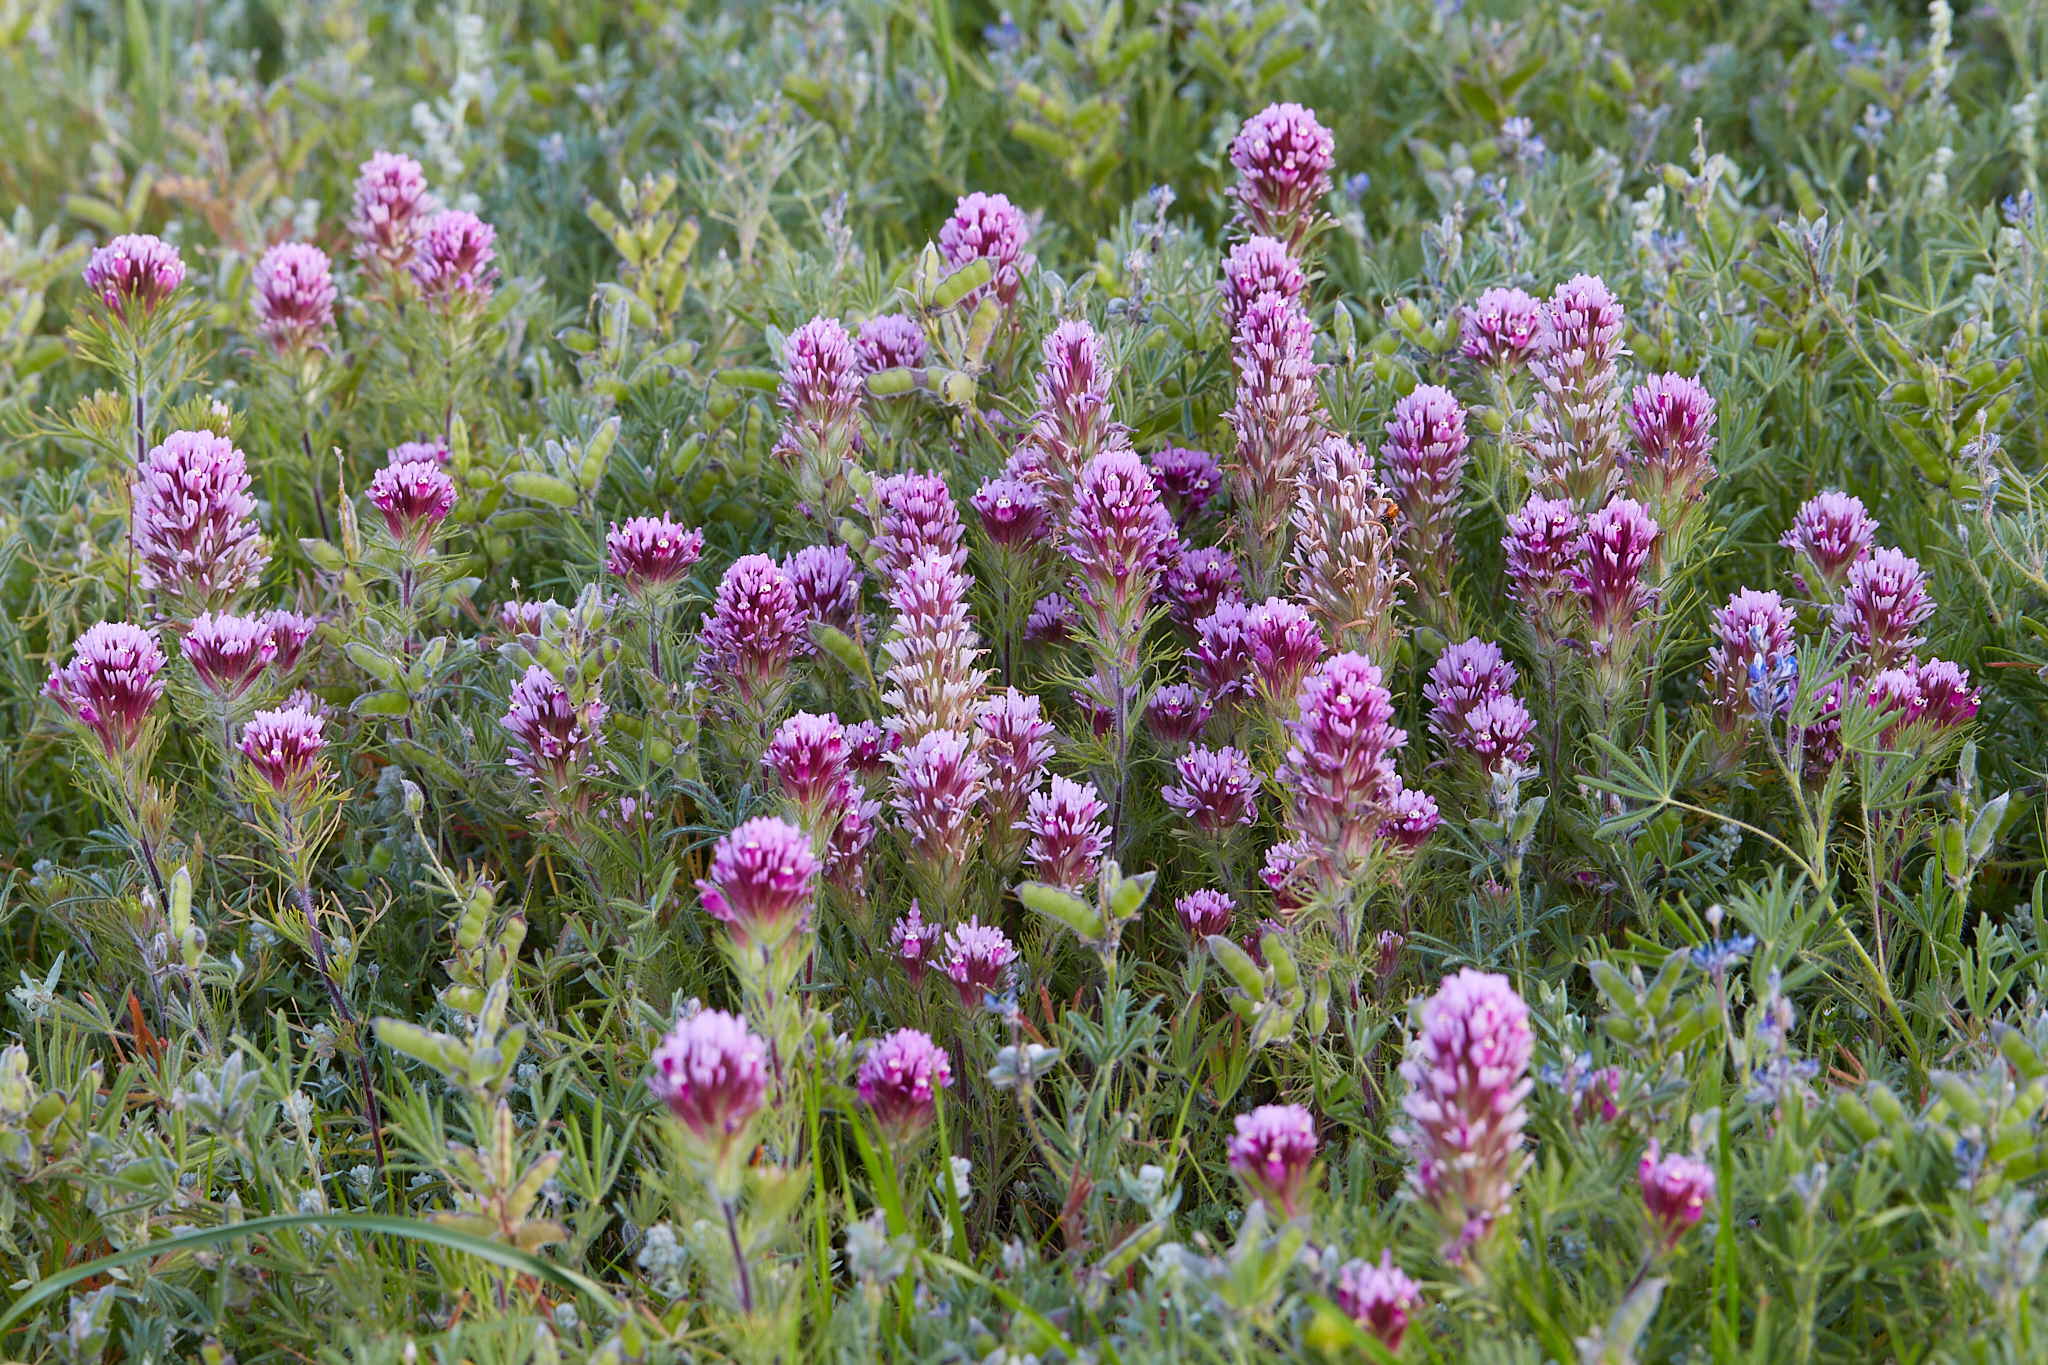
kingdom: Plantae
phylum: Tracheophyta
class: Magnoliopsida
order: Lamiales
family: Orobanchaceae
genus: Castilleja
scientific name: Castilleja exserta
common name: Purple owl-clover
